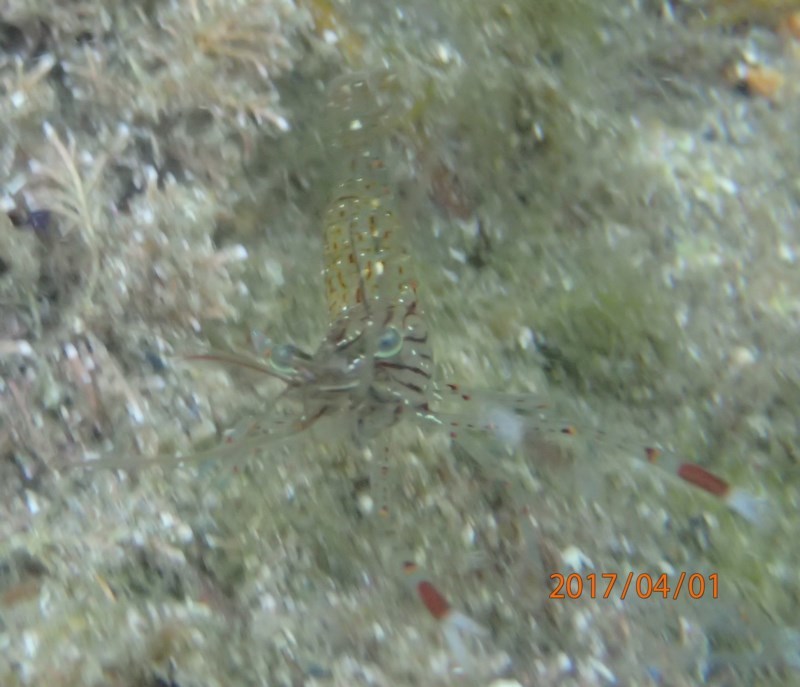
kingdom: Animalia
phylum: Arthropoda
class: Malacostraca
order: Decapoda
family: Palaemonidae
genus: Palaemon
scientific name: Palaemon serenus
